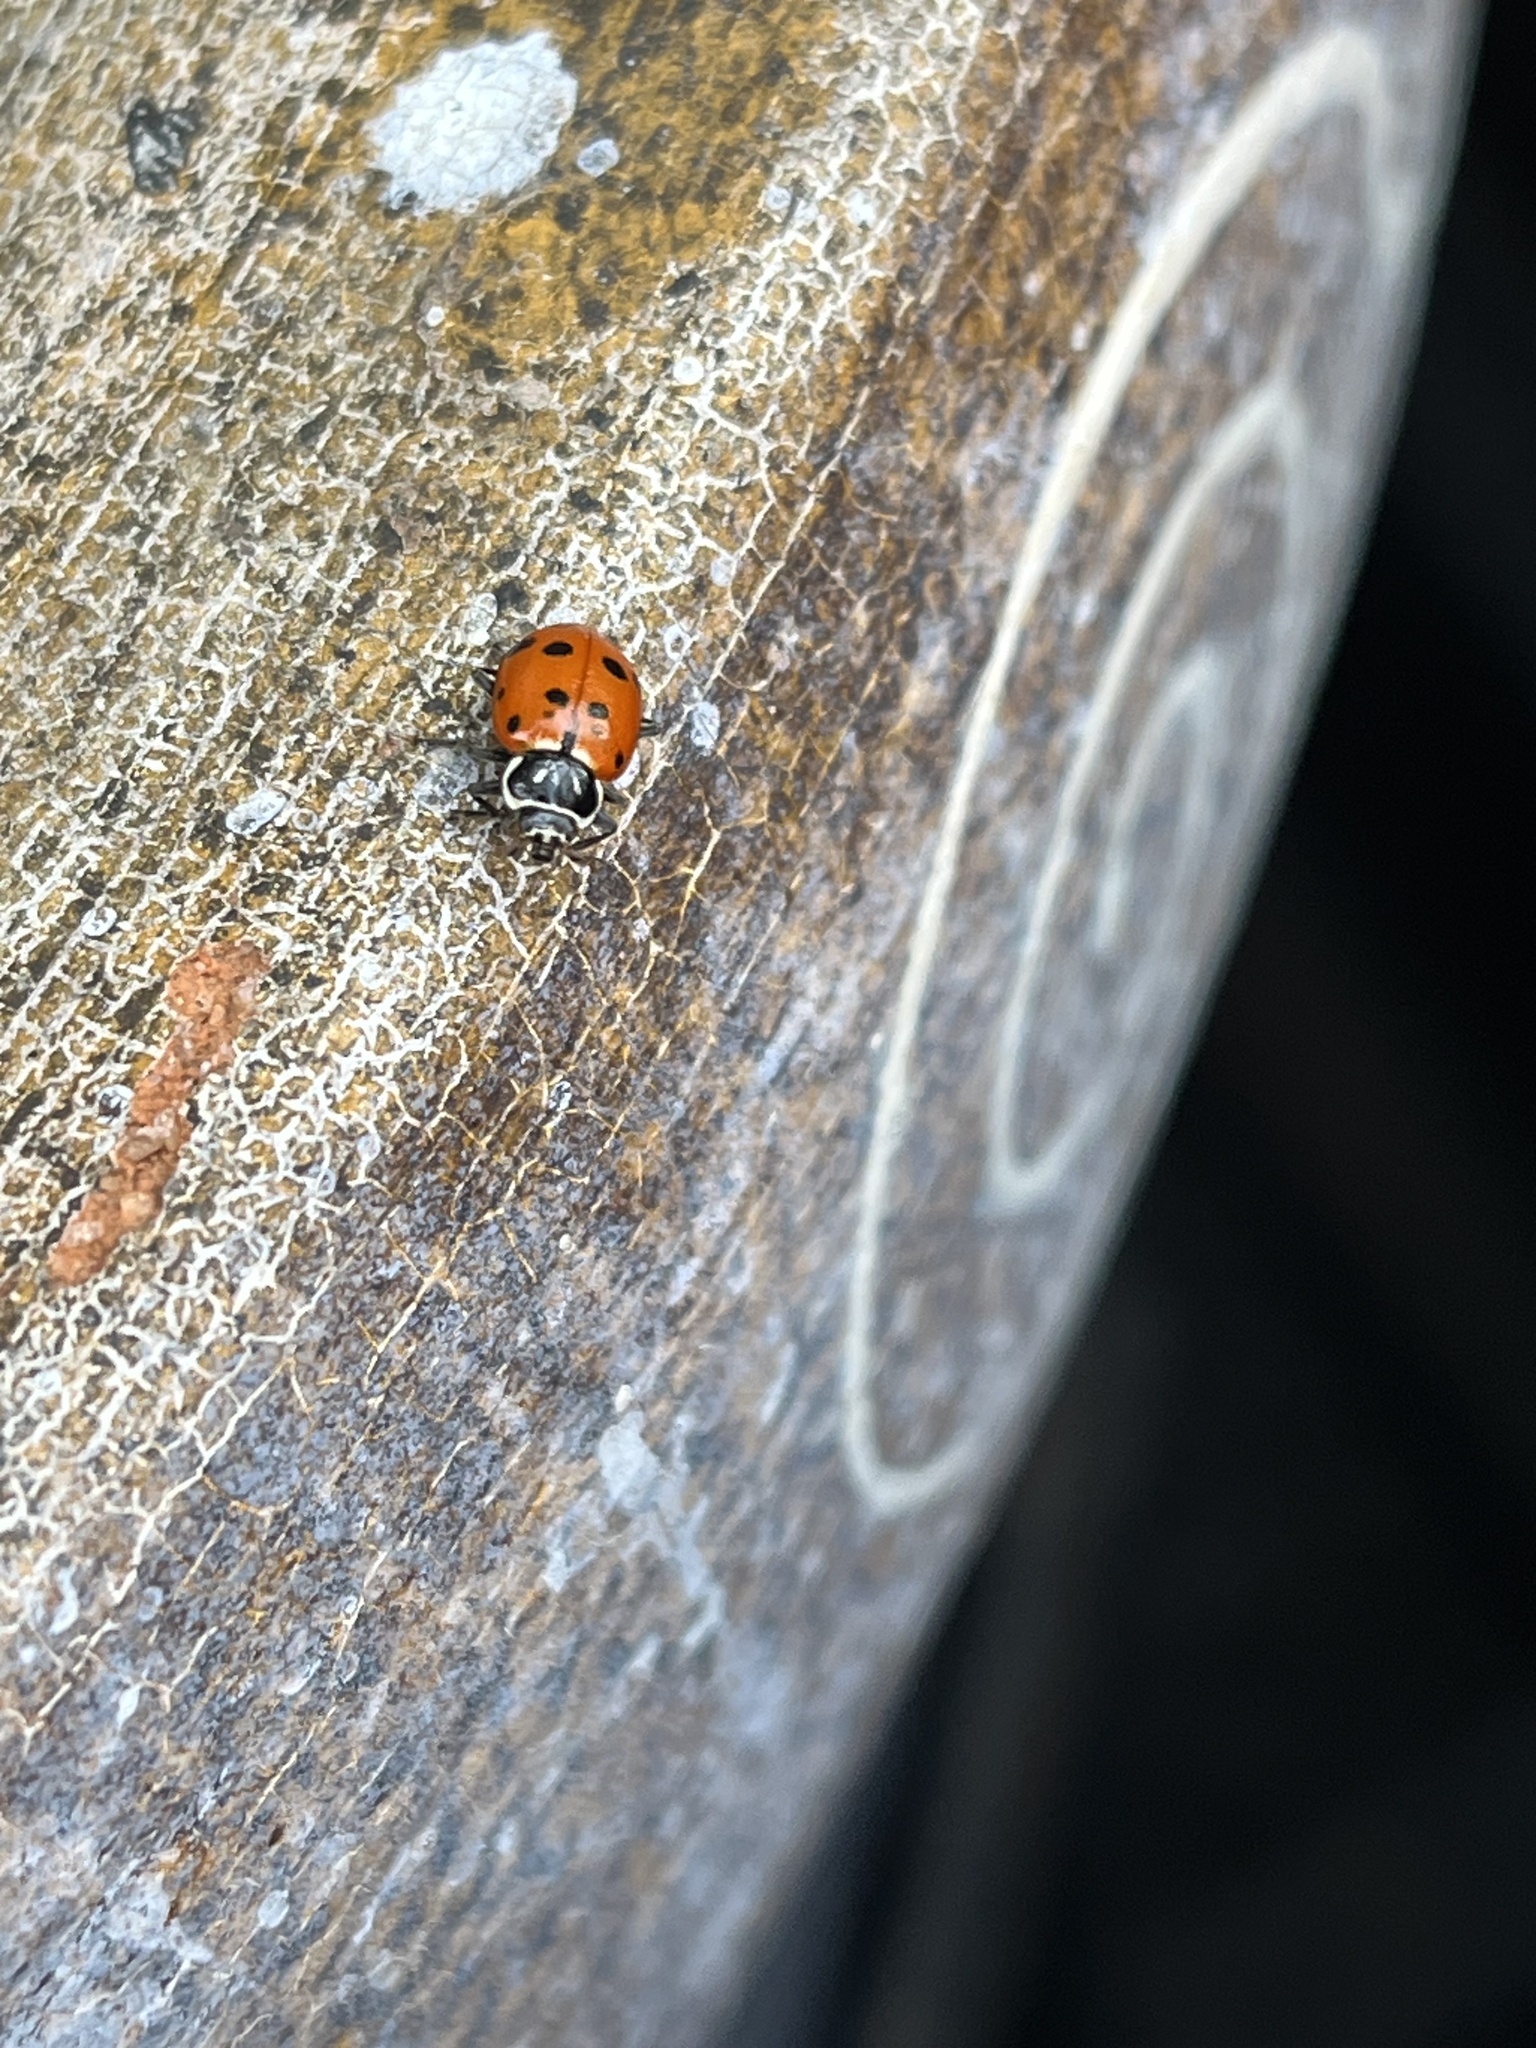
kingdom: Animalia
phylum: Arthropoda
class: Insecta
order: Coleoptera
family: Coccinellidae
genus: Hippodamia
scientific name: Hippodamia convergens
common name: Convergent lady beetle
